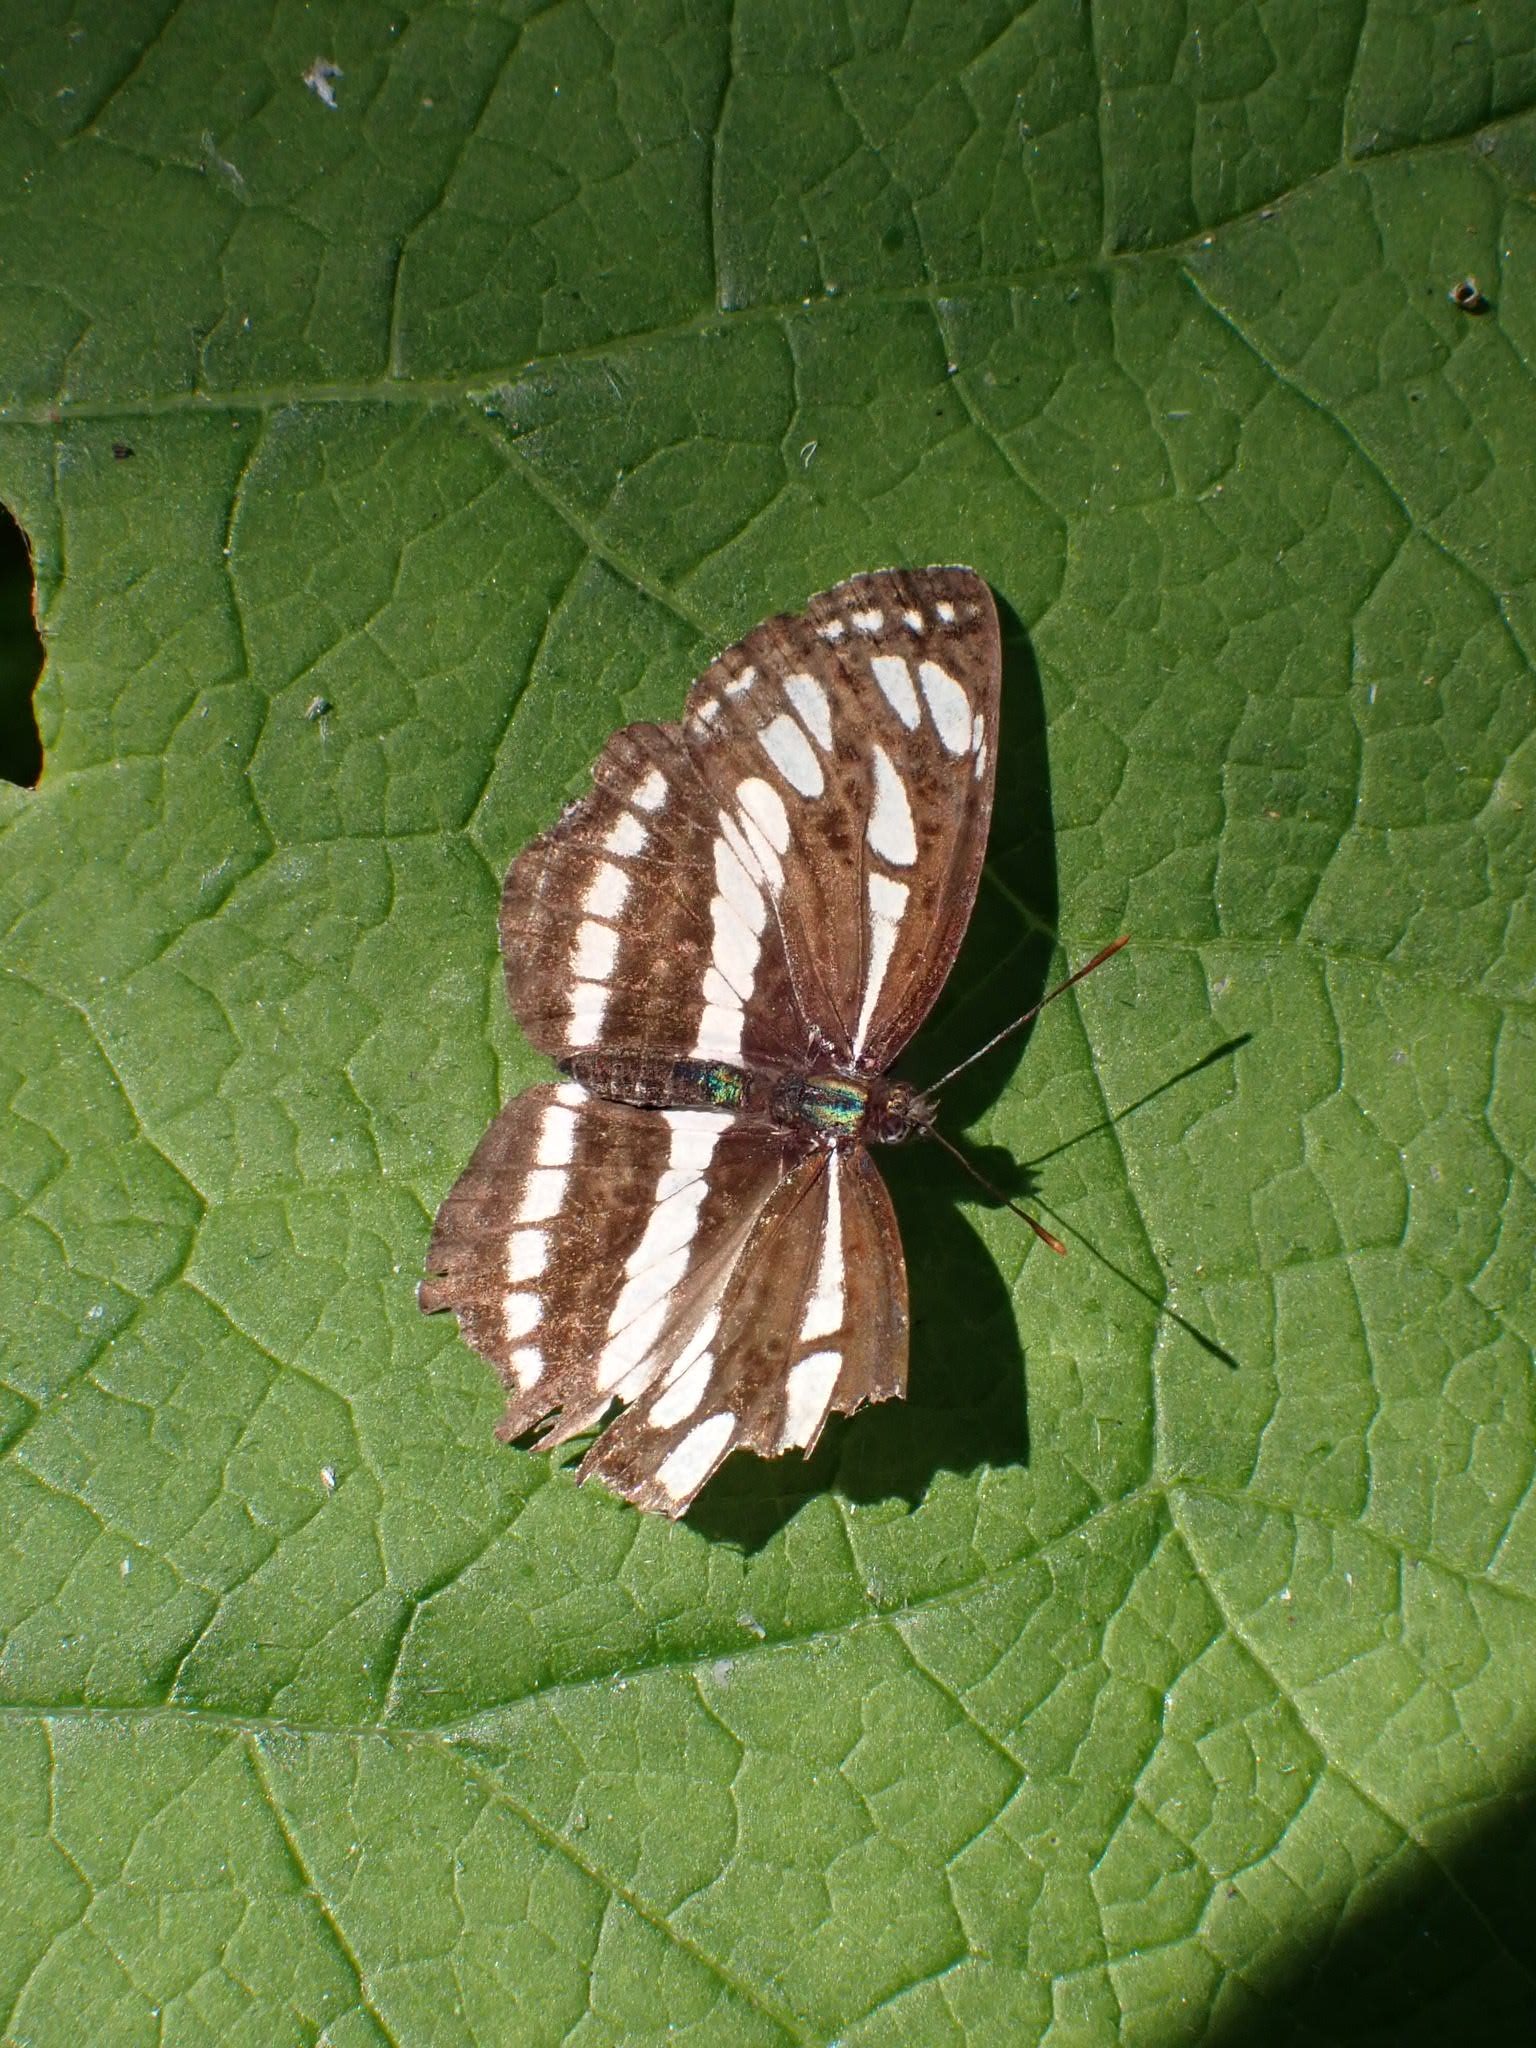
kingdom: Animalia
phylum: Arthropoda
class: Insecta
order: Lepidoptera
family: Nymphalidae
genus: Neptis
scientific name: Neptis sappho
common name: Common glider
